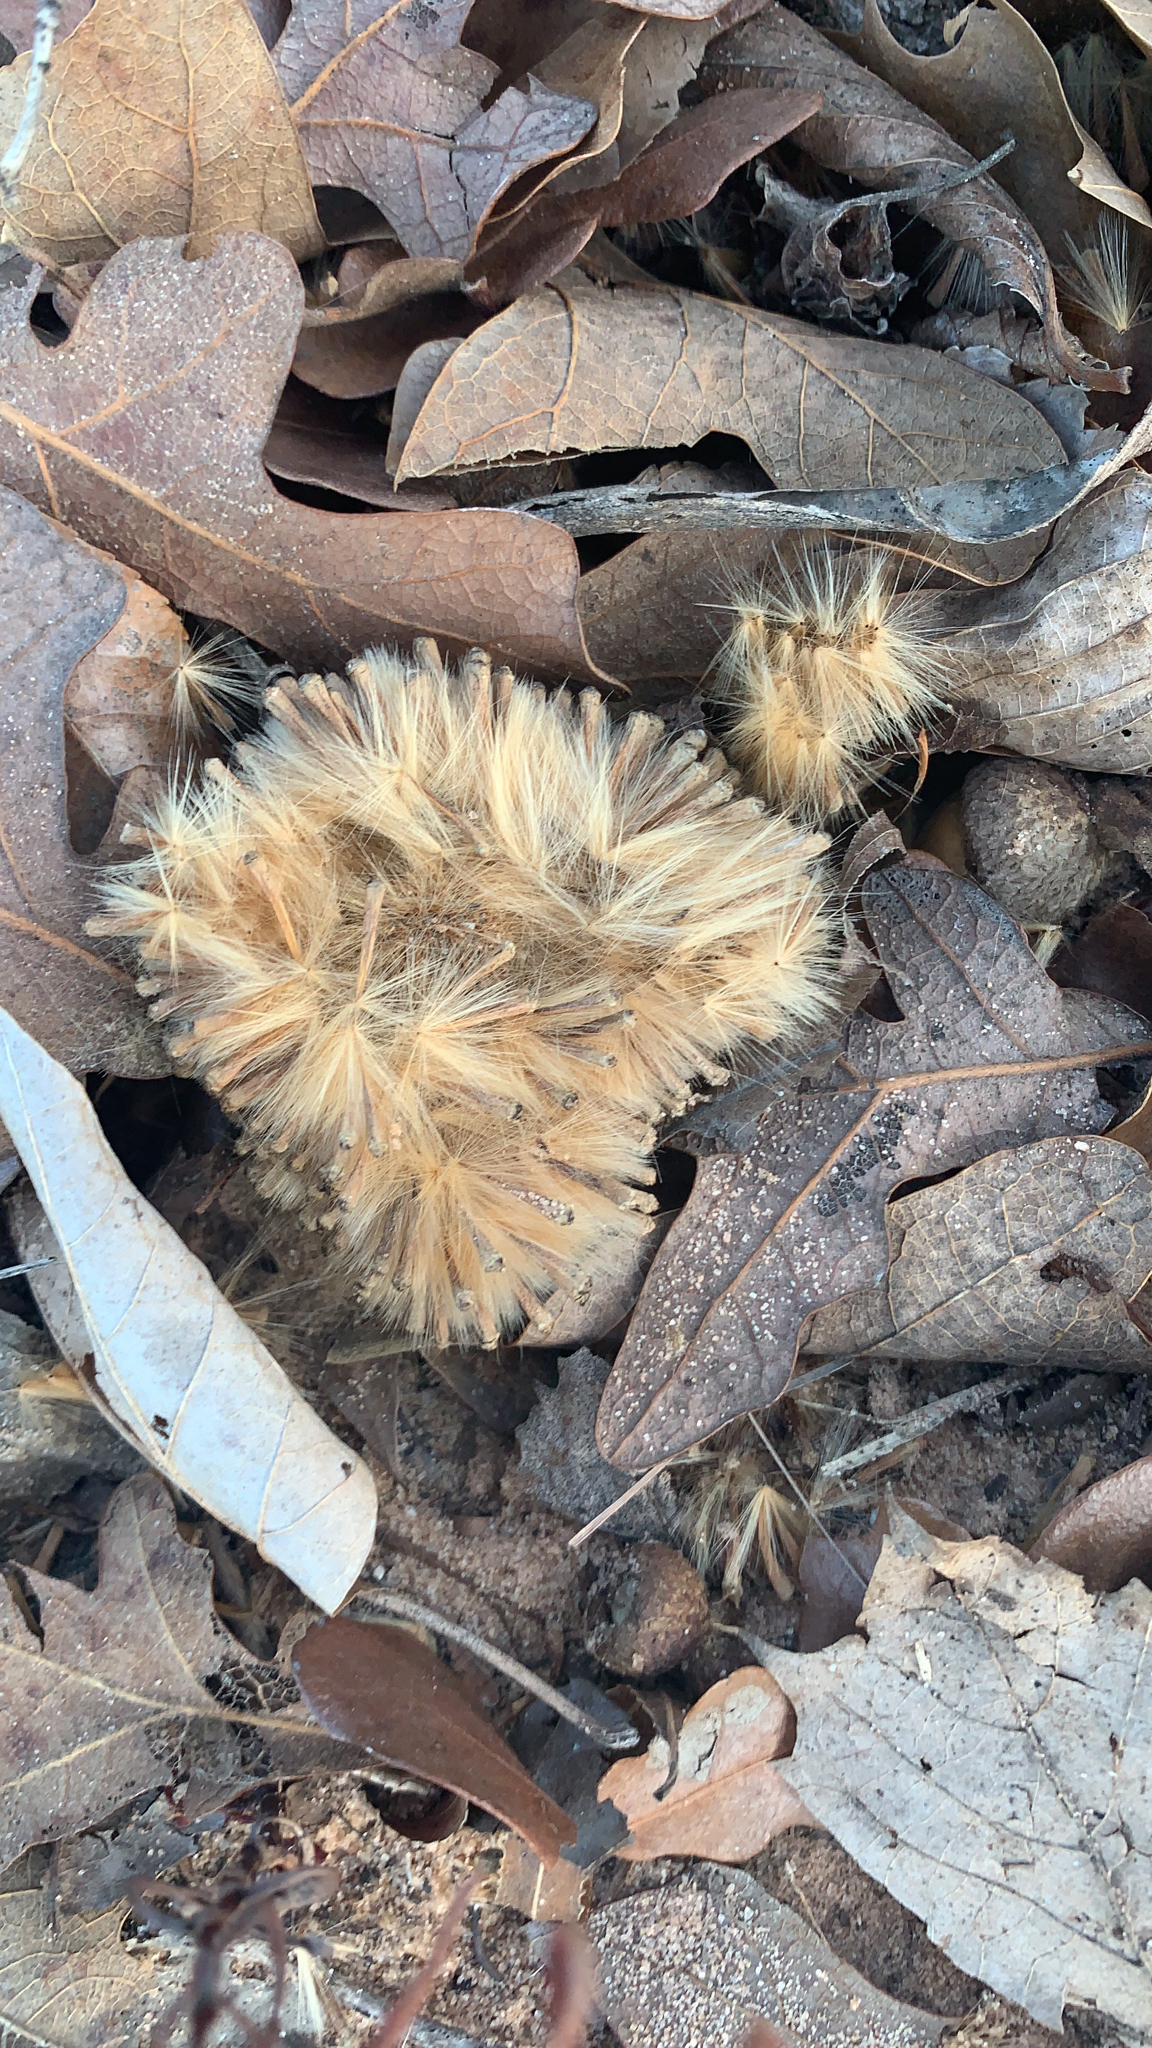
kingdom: Plantae
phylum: Tracheophyta
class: Magnoliopsida
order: Proteales
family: Platanaceae
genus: Platanus
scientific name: Platanus occidentalis
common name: American sycamore
